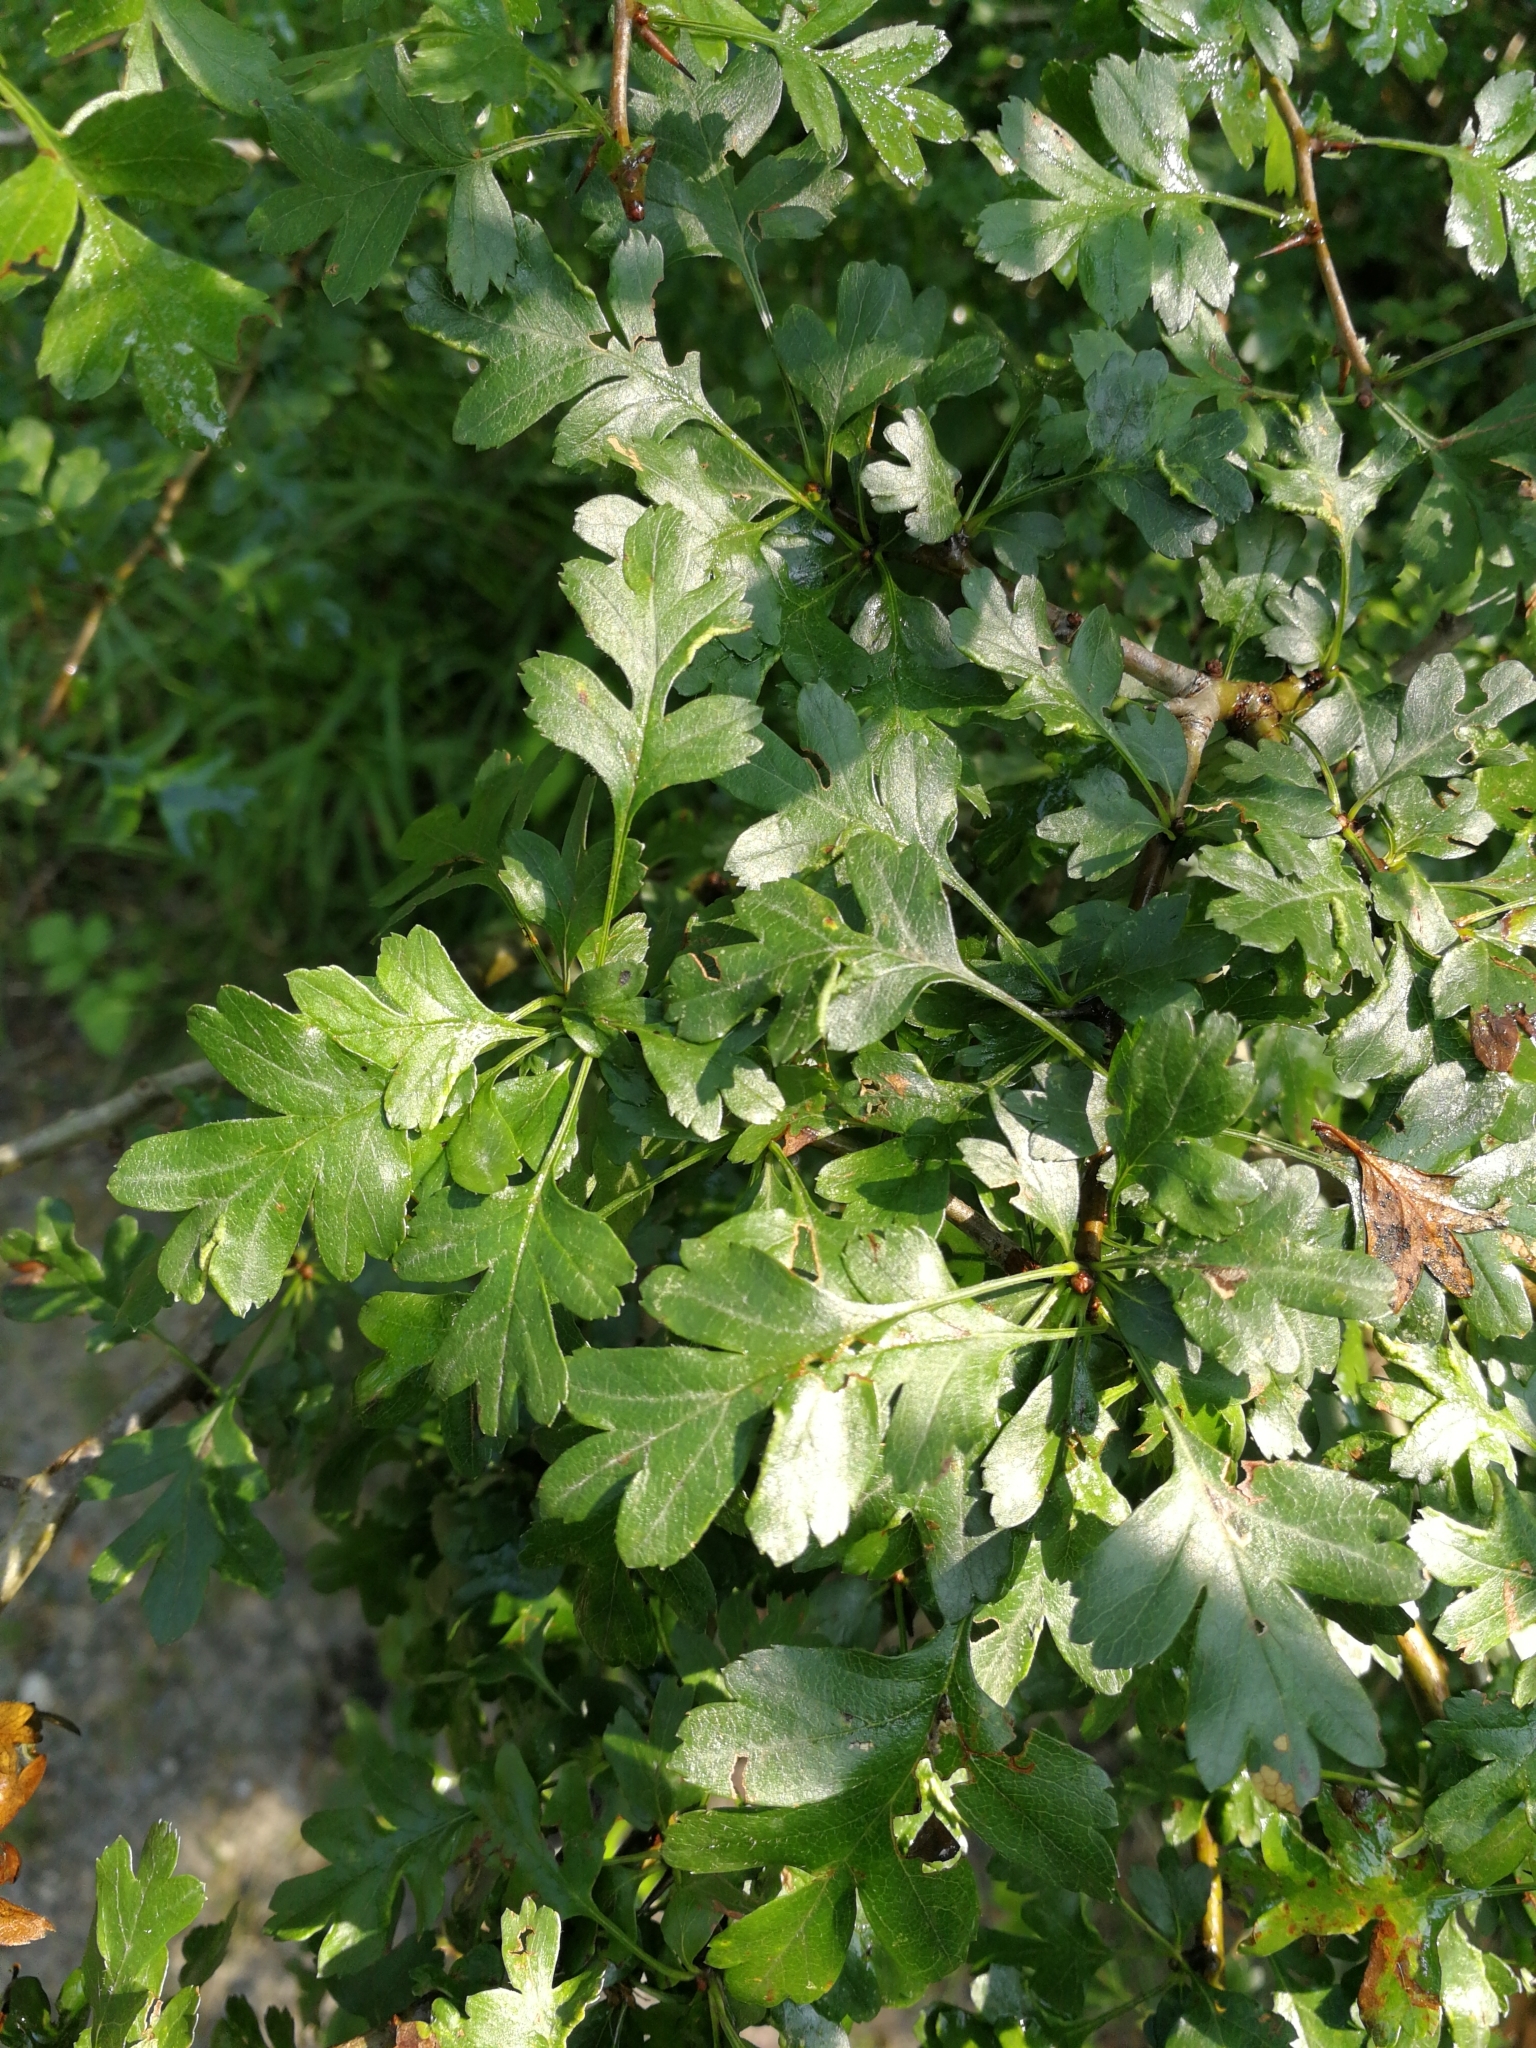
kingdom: Plantae
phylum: Tracheophyta
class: Magnoliopsida
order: Rosales
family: Rosaceae
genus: Crataegus
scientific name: Crataegus monogyna
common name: Hawthorn
